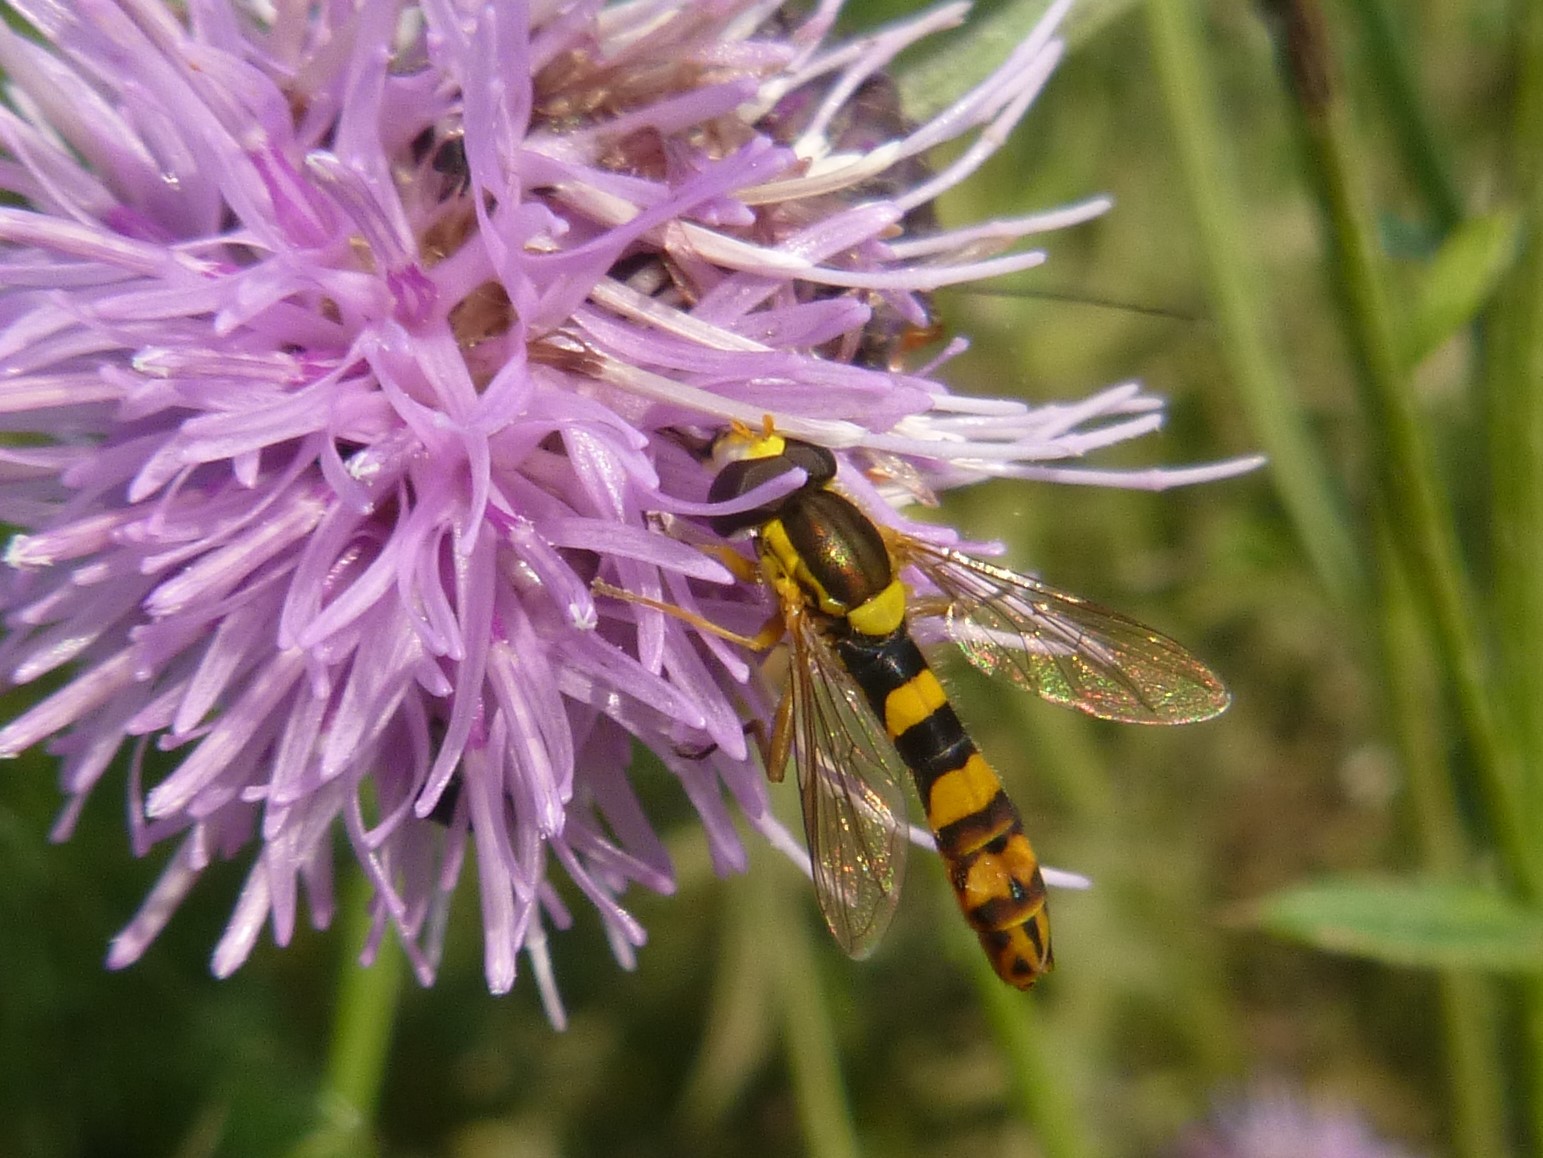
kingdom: Animalia
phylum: Arthropoda
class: Insecta
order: Diptera
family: Syrphidae
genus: Sphaerophoria
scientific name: Sphaerophoria scripta
